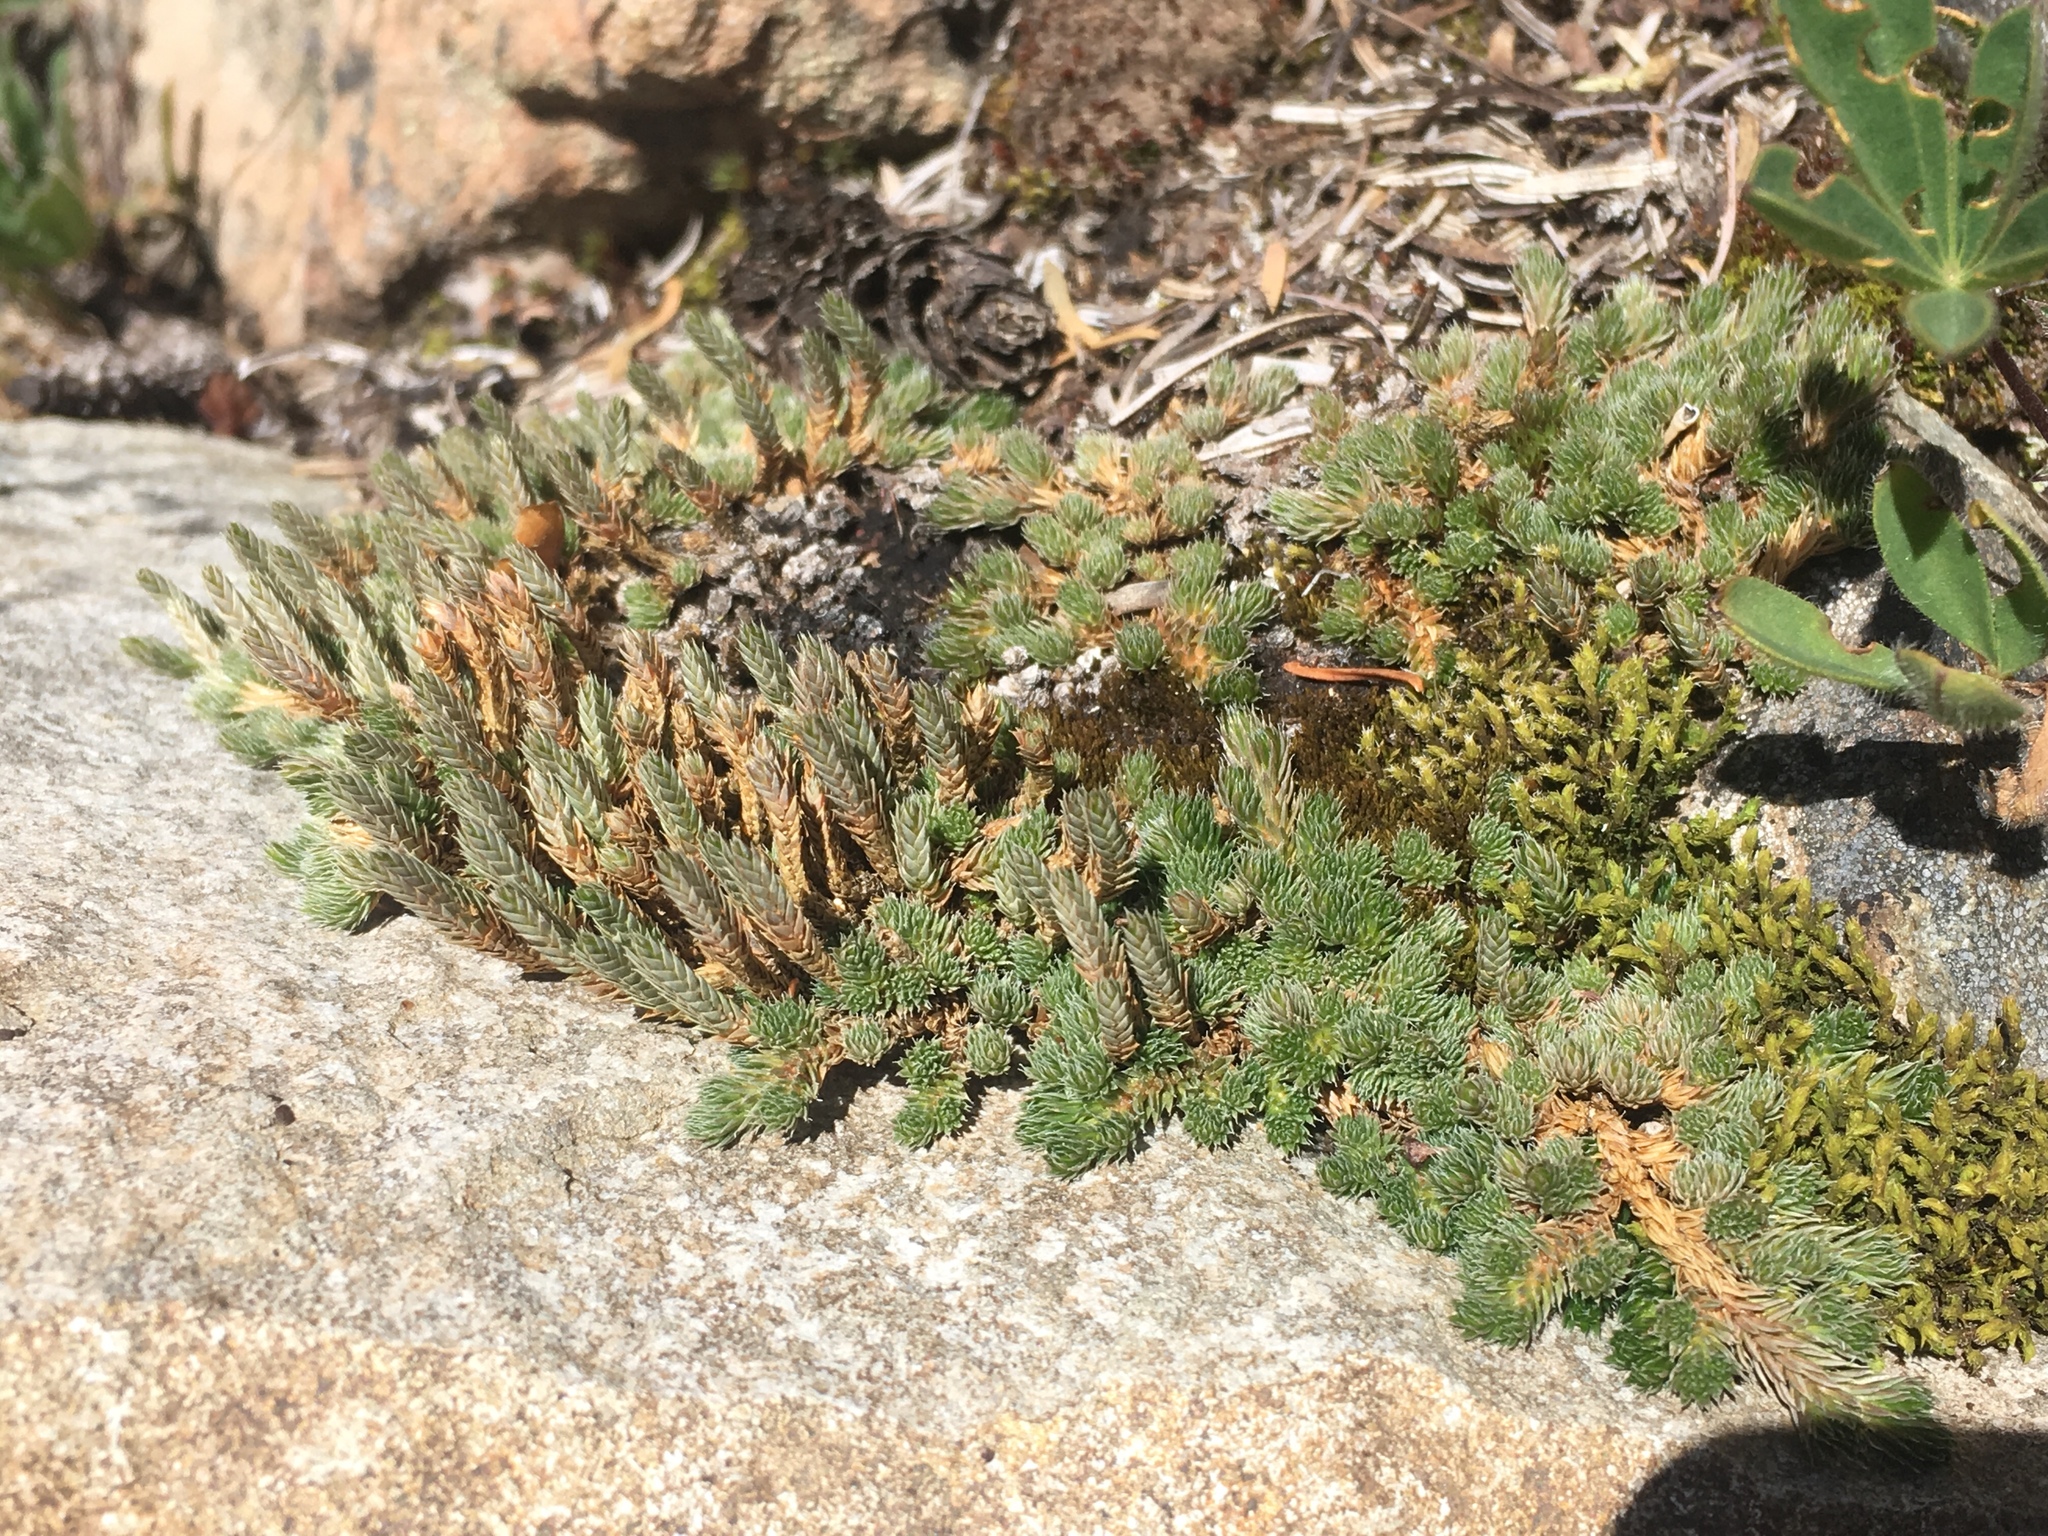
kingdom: Plantae
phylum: Tracheophyta
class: Lycopodiopsida
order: Selaginellales
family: Selaginellaceae
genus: Selaginella
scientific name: Selaginella densa
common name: Mountain spike-moss
